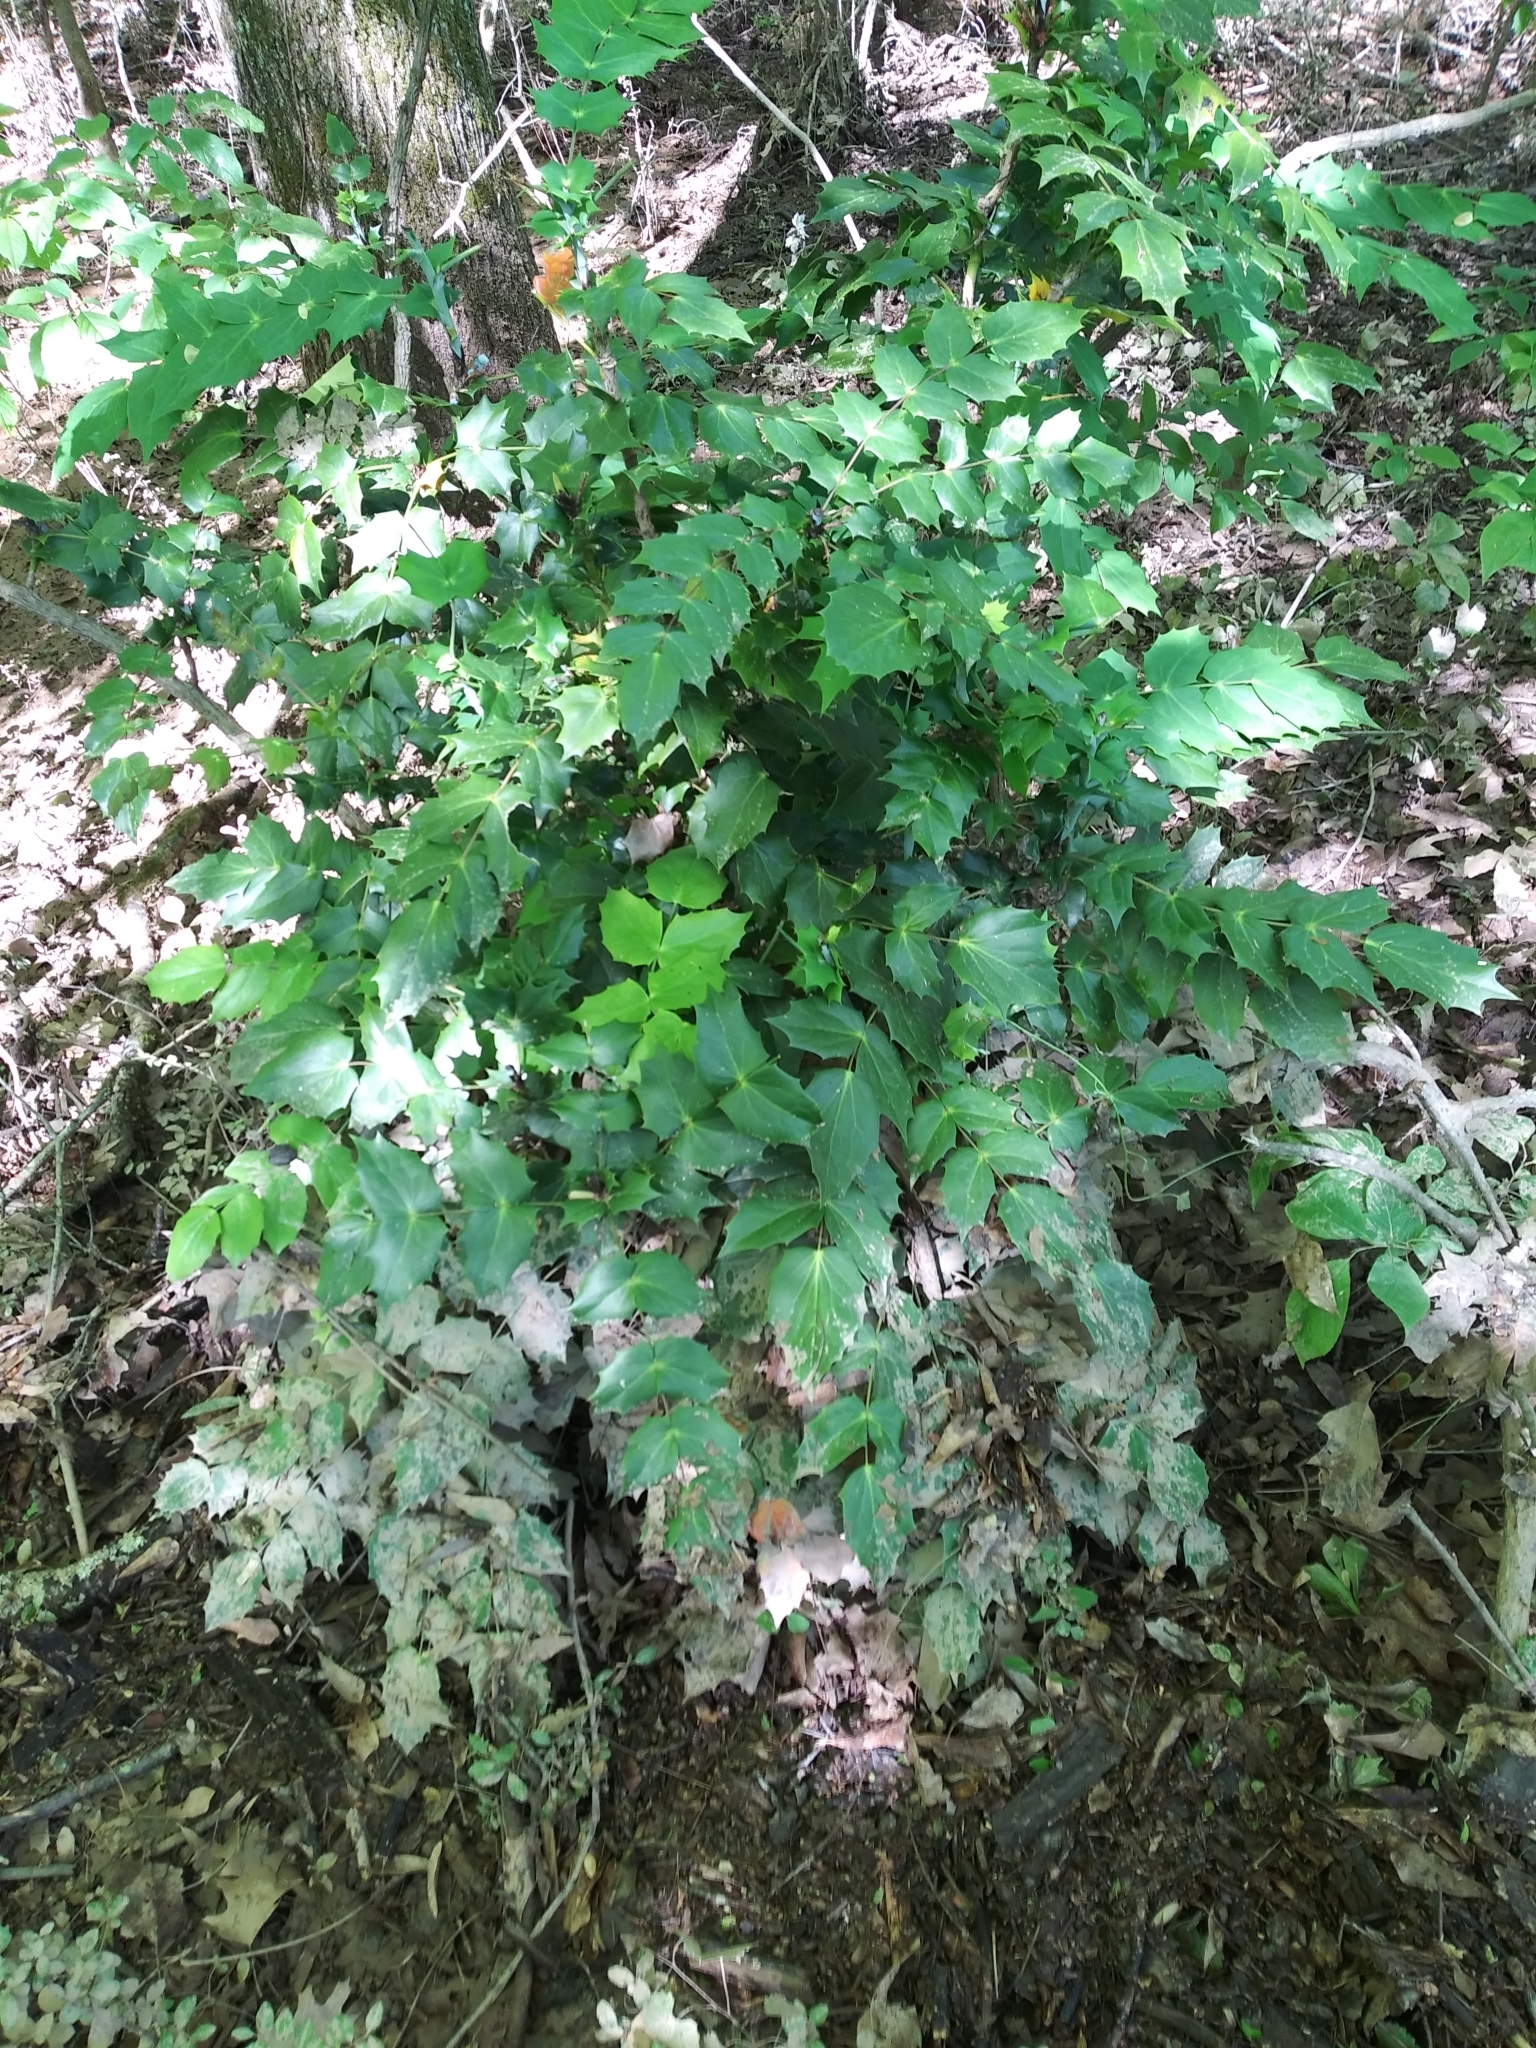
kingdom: Plantae
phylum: Tracheophyta
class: Magnoliopsida
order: Ranunculales
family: Berberidaceae
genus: Mahonia
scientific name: Mahonia bealei
